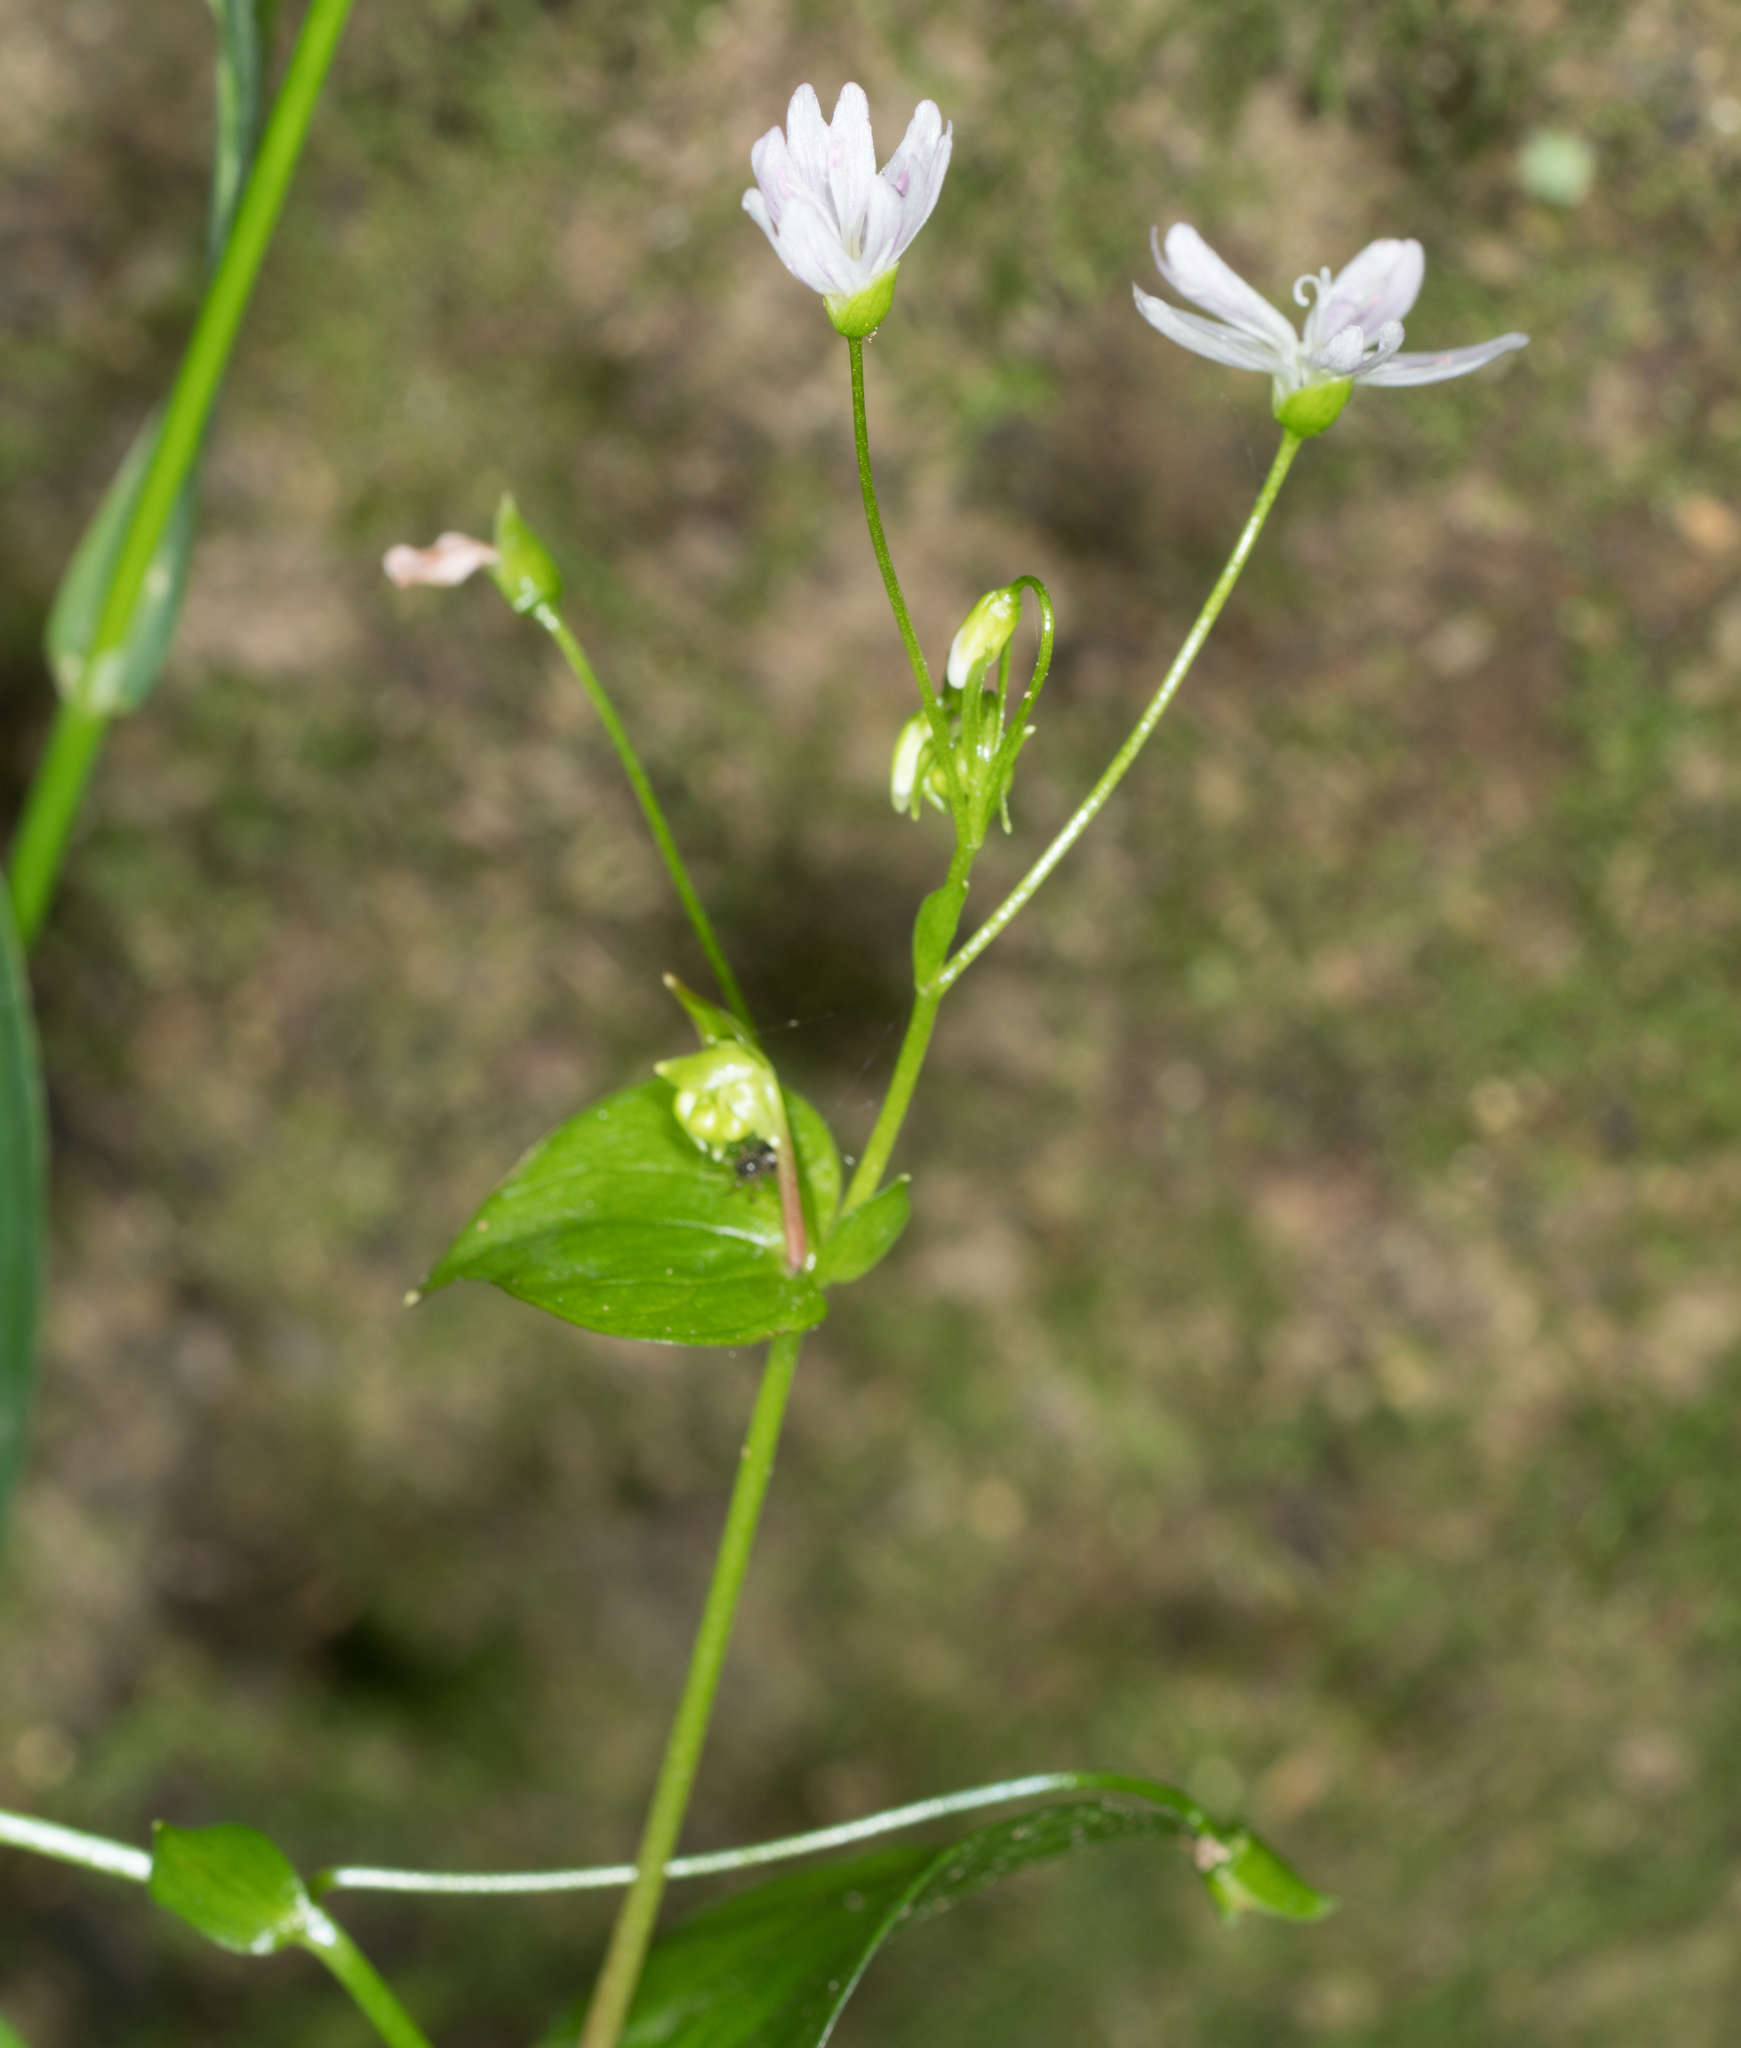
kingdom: Plantae
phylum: Tracheophyta
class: Magnoliopsida
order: Caryophyllales
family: Montiaceae
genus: Claytonia
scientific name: Claytonia sibirica
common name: Pink purslane
